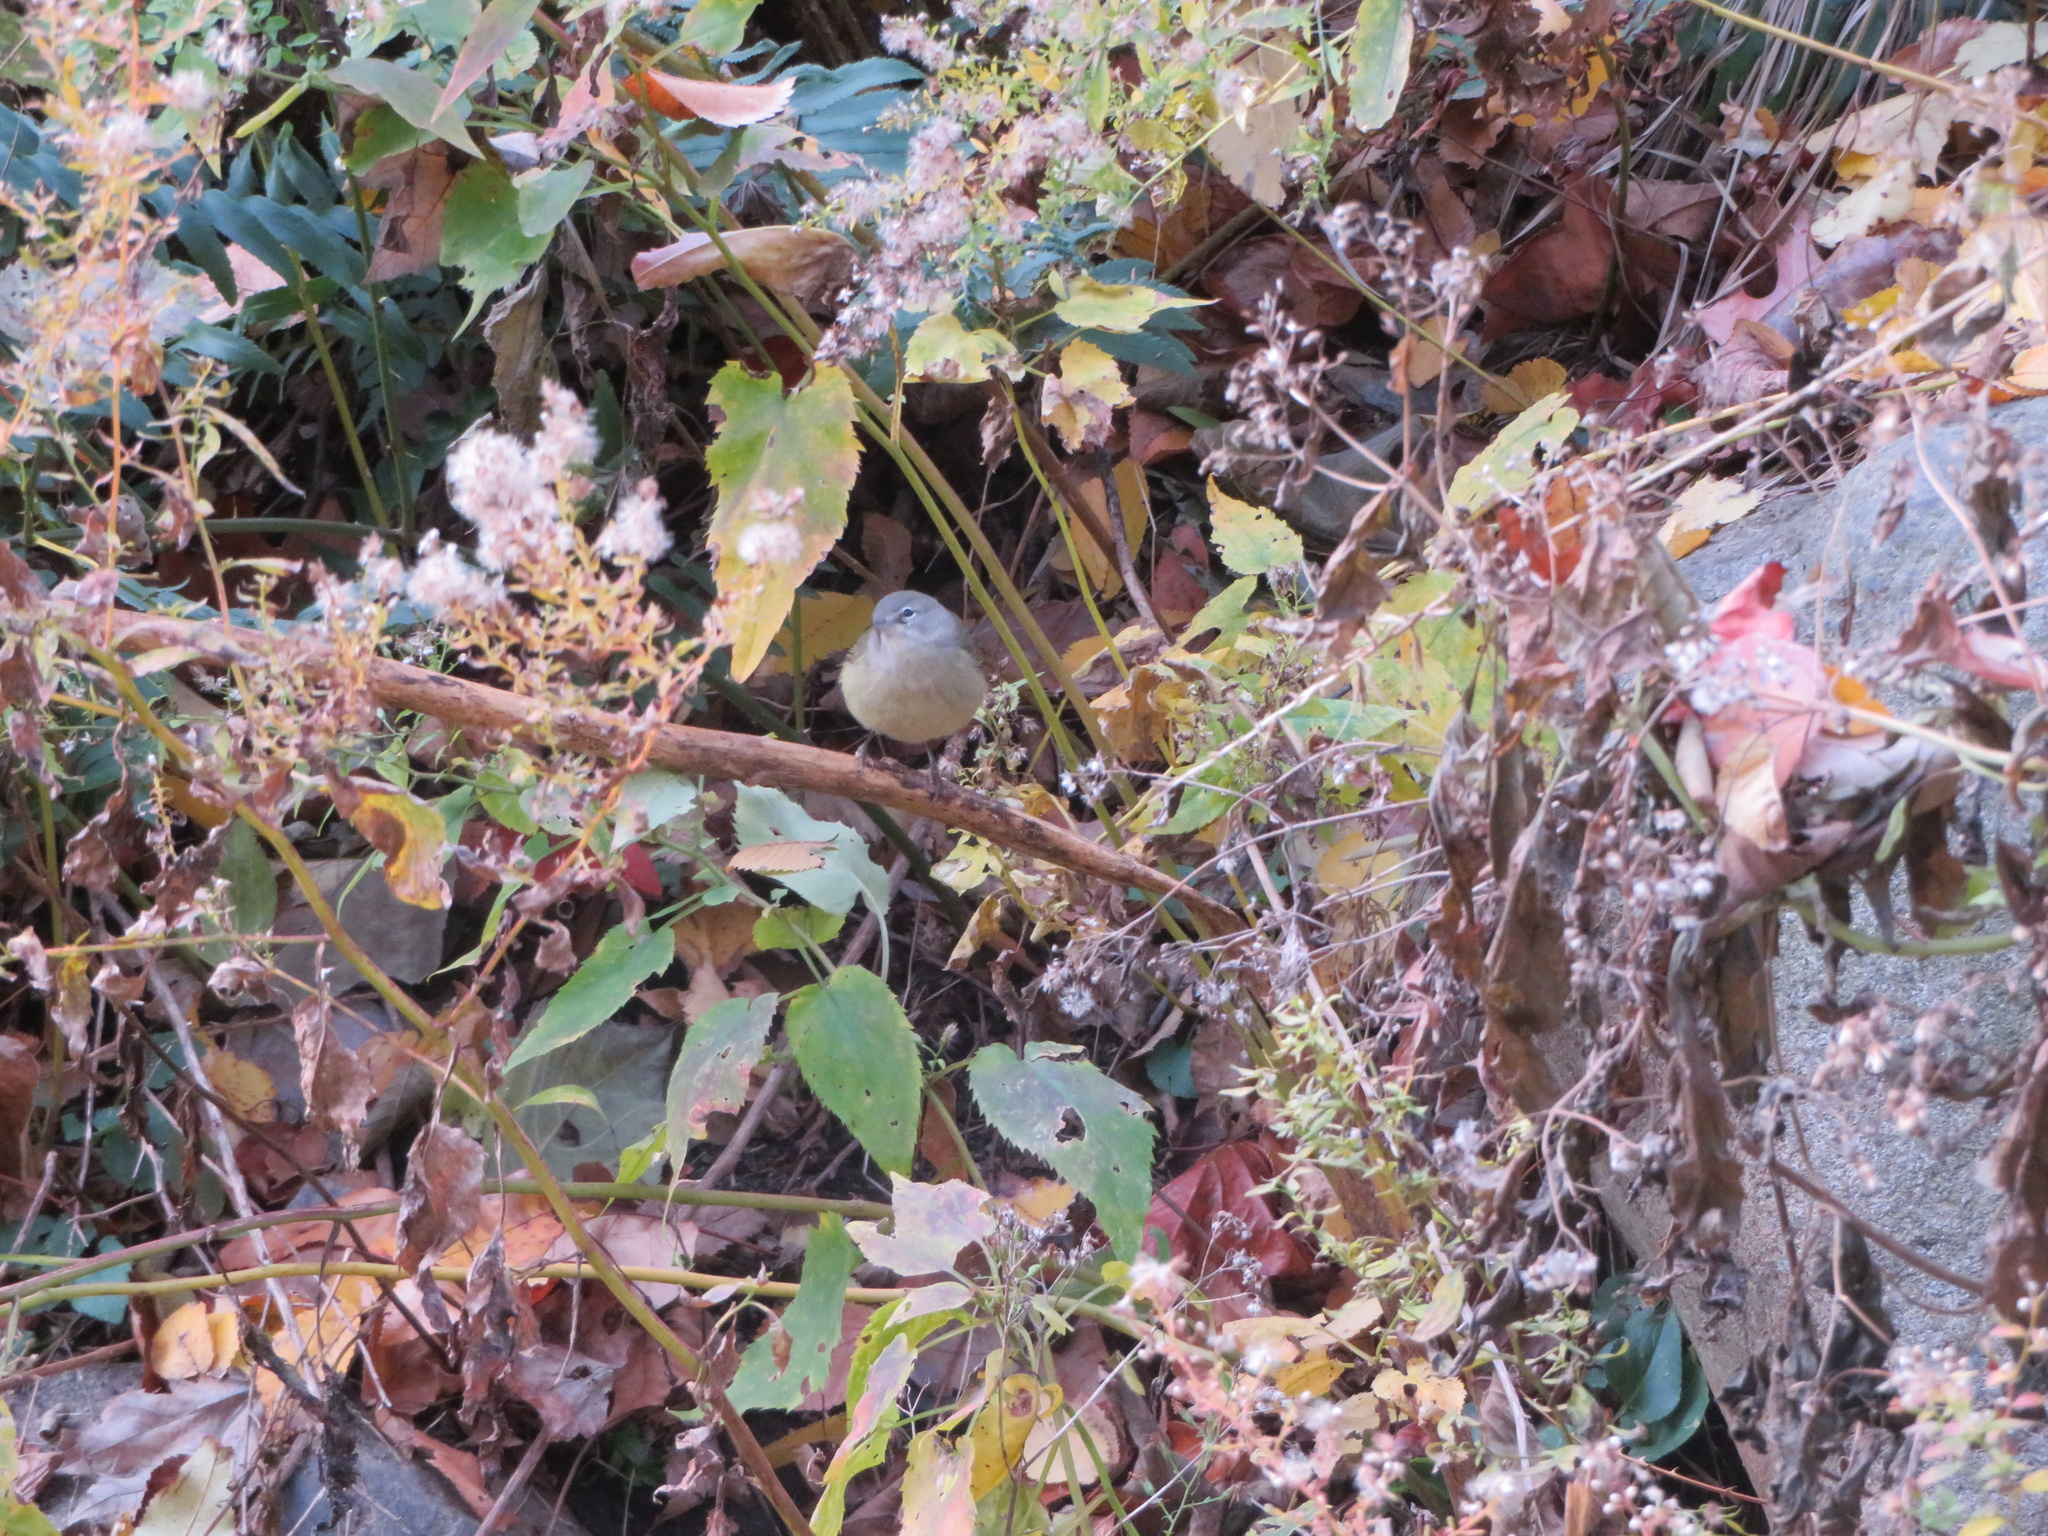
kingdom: Animalia
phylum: Chordata
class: Aves
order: Passeriformes
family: Parulidae
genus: Leiothlypis
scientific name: Leiothlypis celata
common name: Orange-crowned warbler
